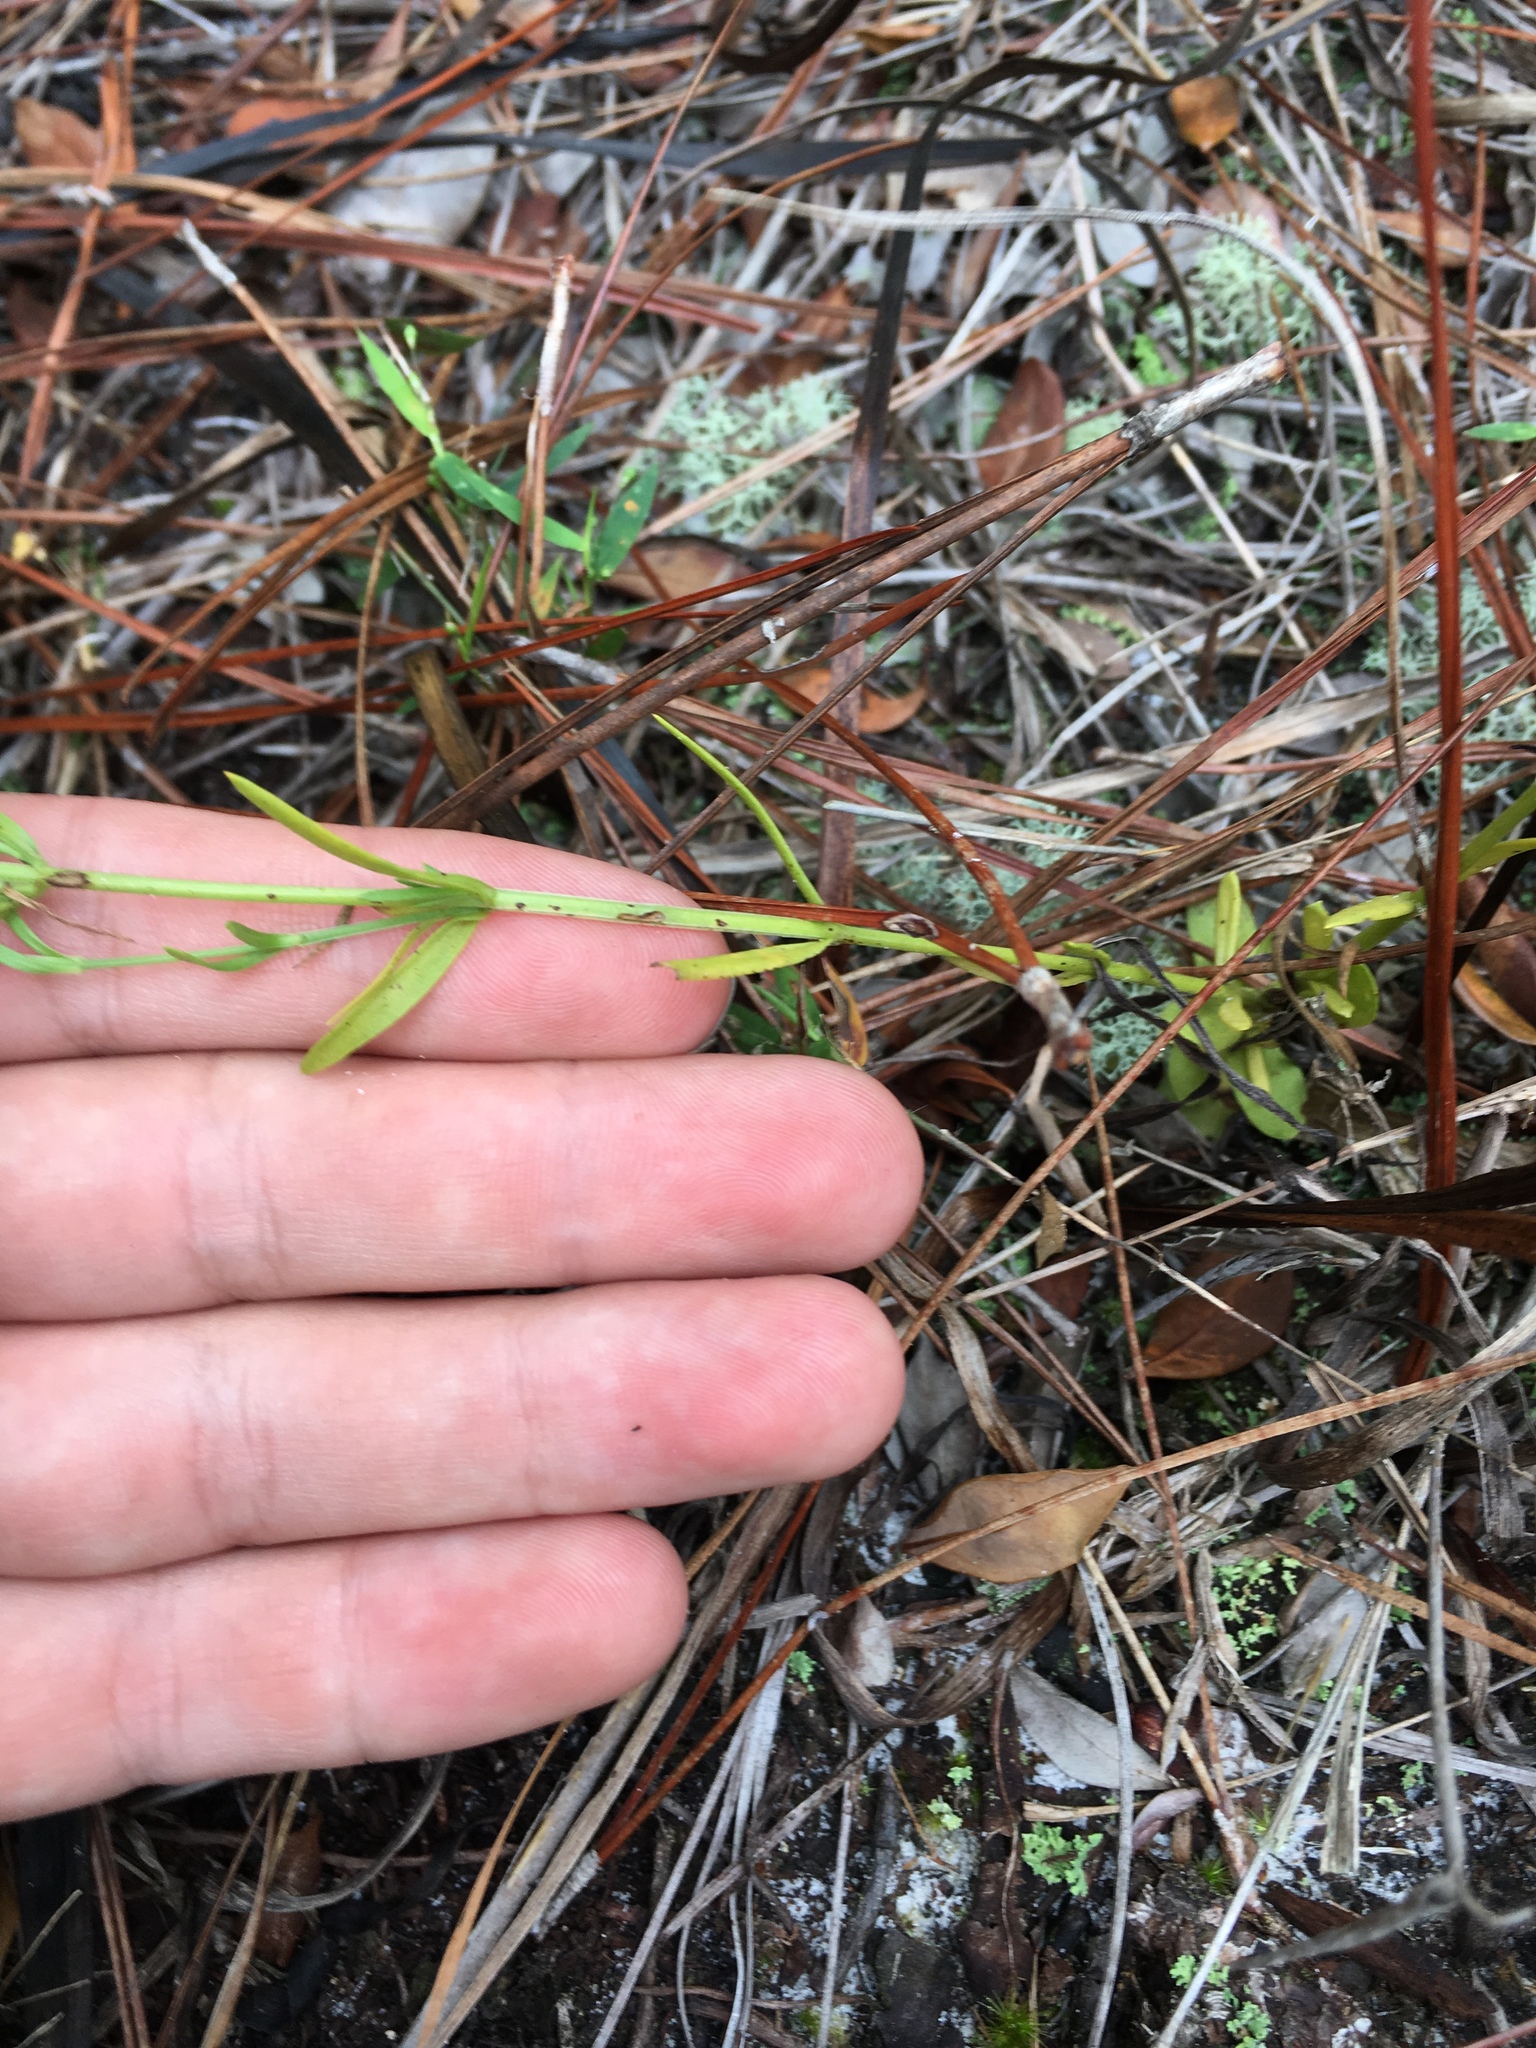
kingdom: Plantae
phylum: Tracheophyta
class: Magnoliopsida
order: Gentianales
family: Gentianaceae
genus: Sabatia
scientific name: Sabatia brevifolia
